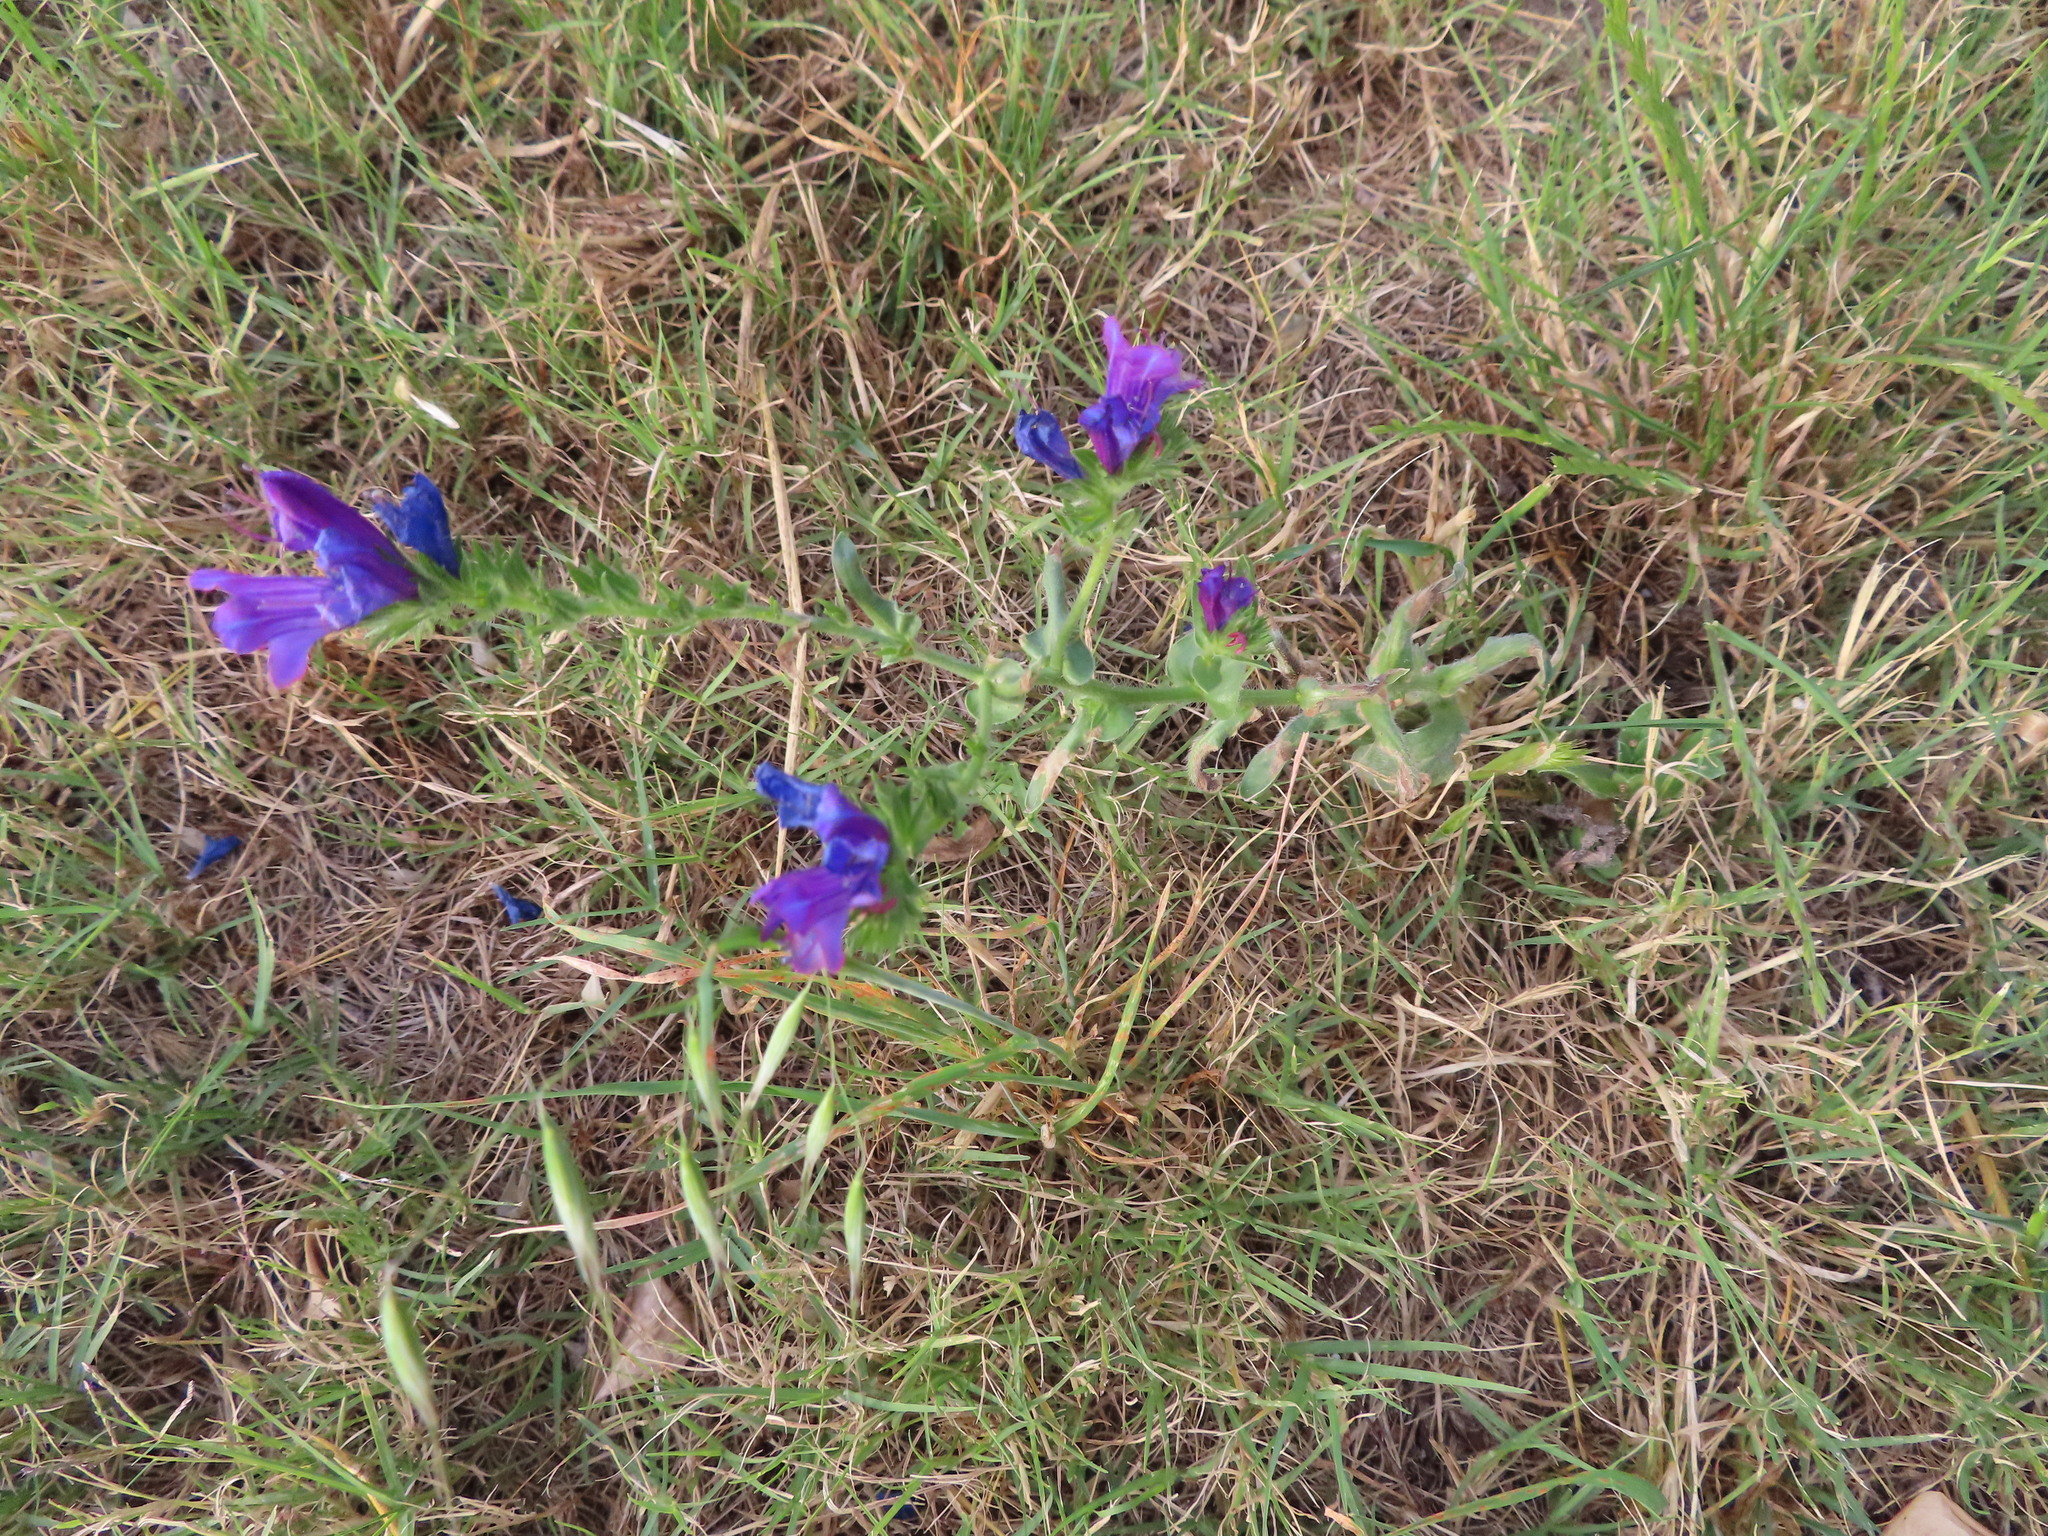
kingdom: Plantae
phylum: Tracheophyta
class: Magnoliopsida
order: Boraginales
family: Boraginaceae
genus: Echium
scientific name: Echium plantagineum
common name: Purple viper's-bugloss
